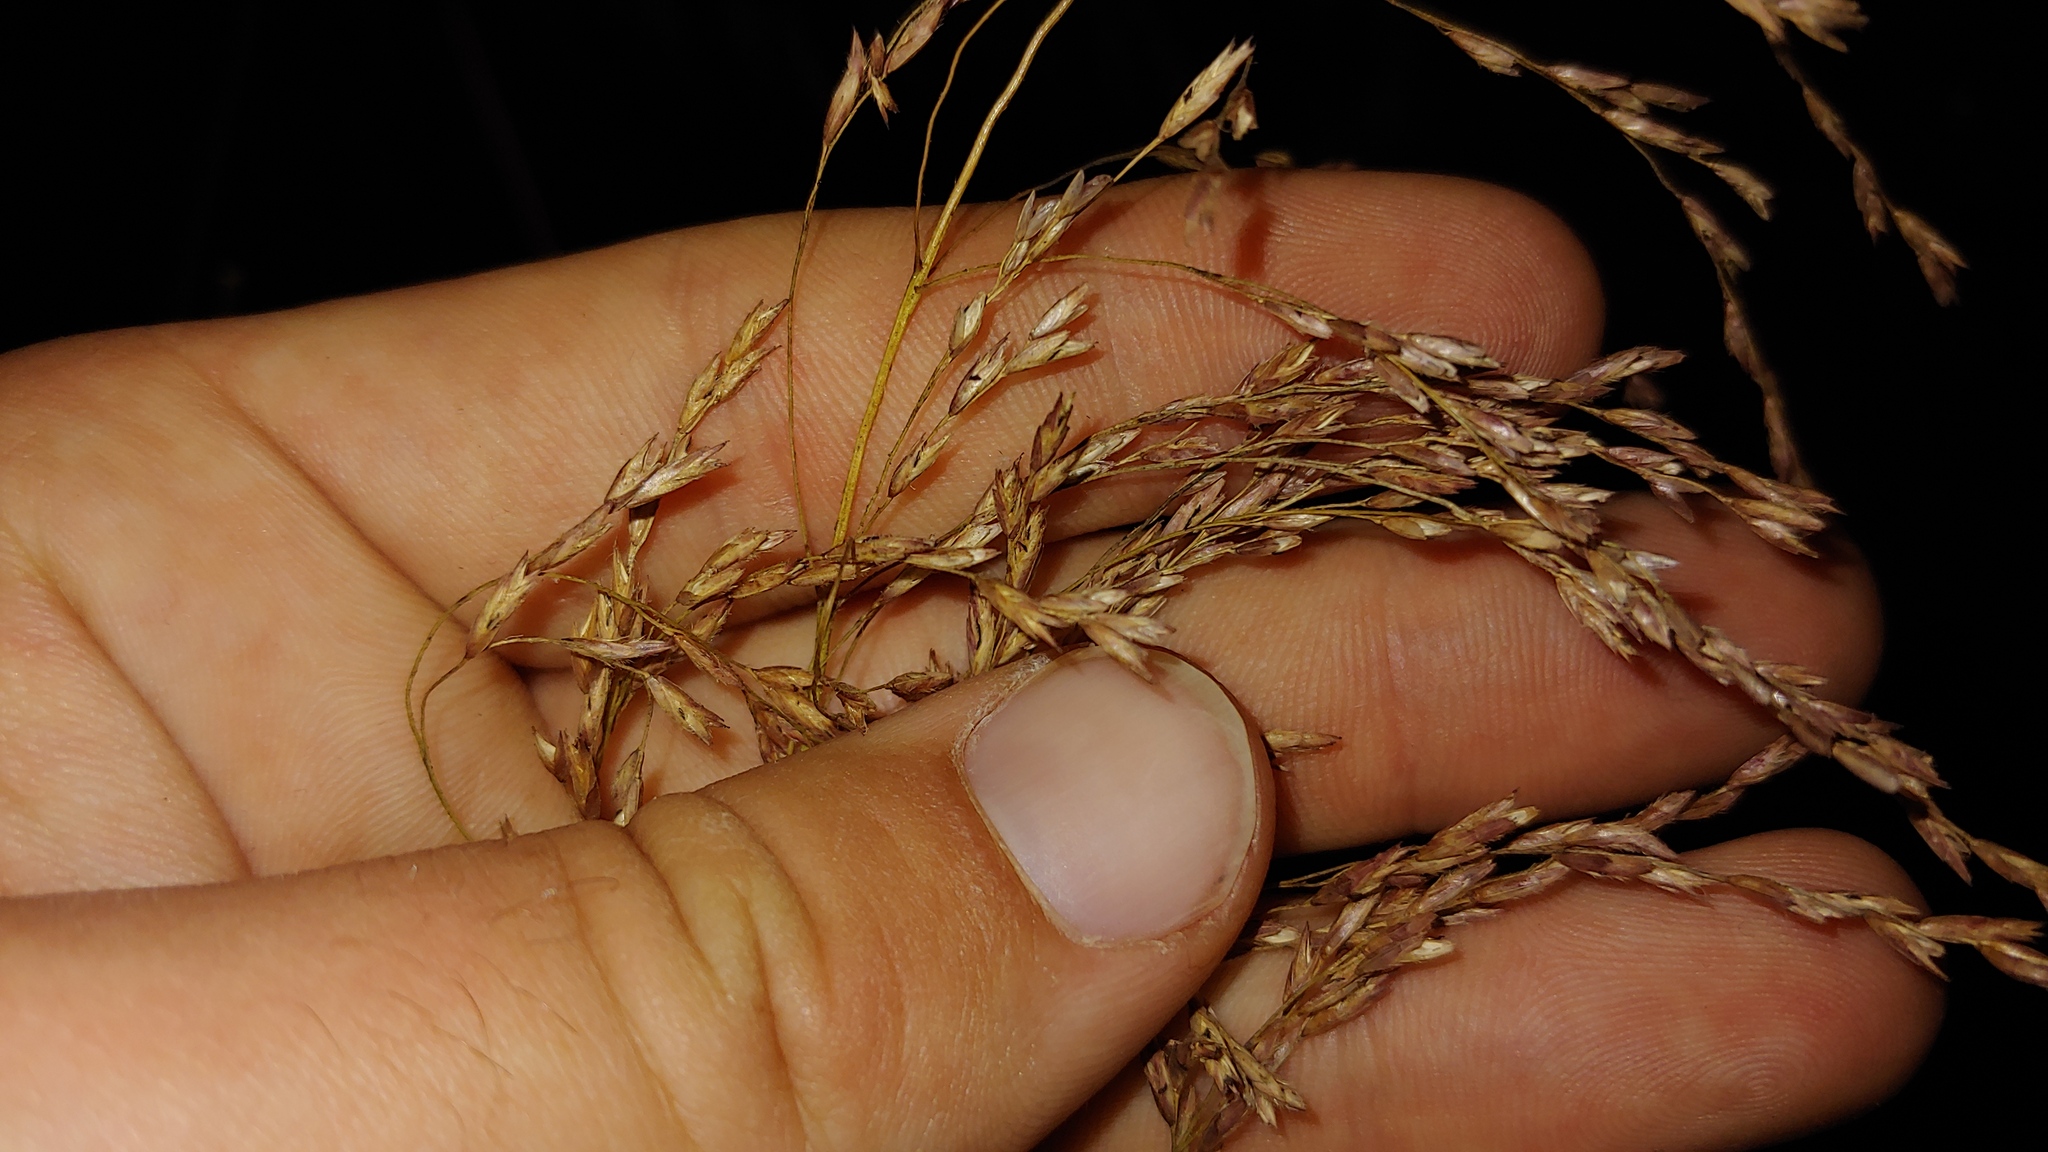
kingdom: Plantae
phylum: Tracheophyta
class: Liliopsida
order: Poales
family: Poaceae
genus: Tridens
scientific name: Tridens flavus
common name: Purpletop
